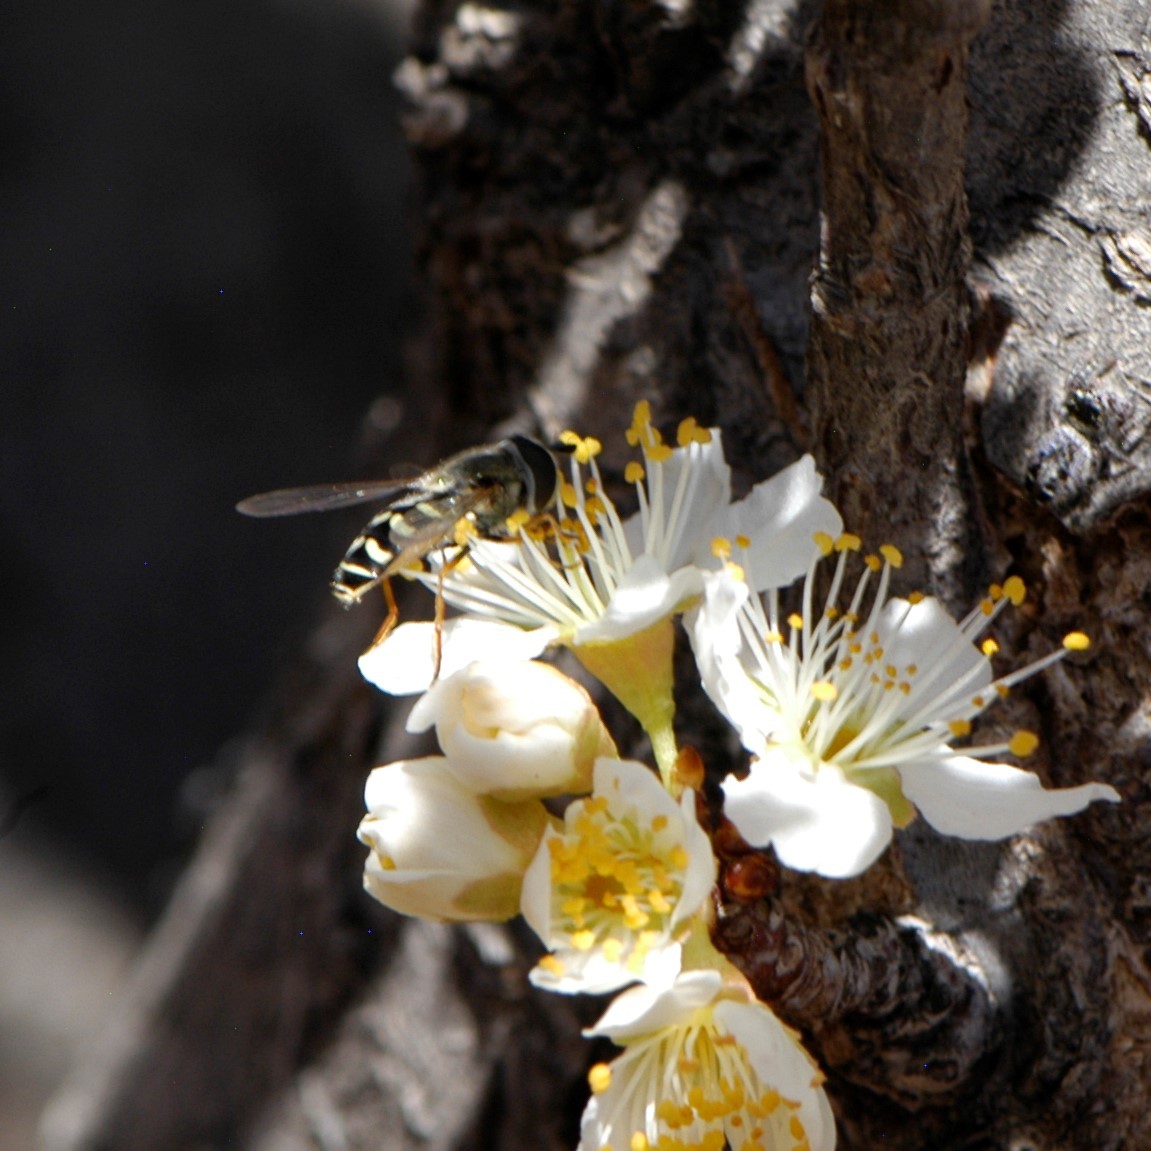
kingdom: Animalia
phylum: Arthropoda
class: Insecta
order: Diptera
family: Syrphidae
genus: Eupeodes
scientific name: Eupeodes volucris
